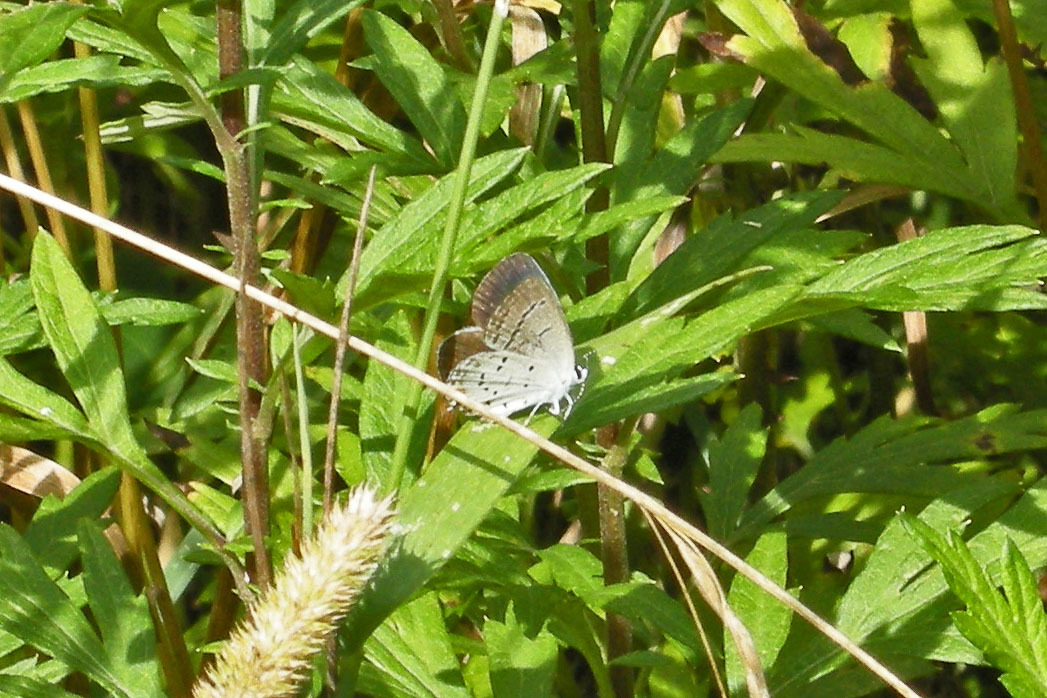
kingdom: Animalia
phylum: Arthropoda
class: Insecta
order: Lepidoptera
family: Lycaenidae
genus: Elkalyce
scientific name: Elkalyce comyntas
